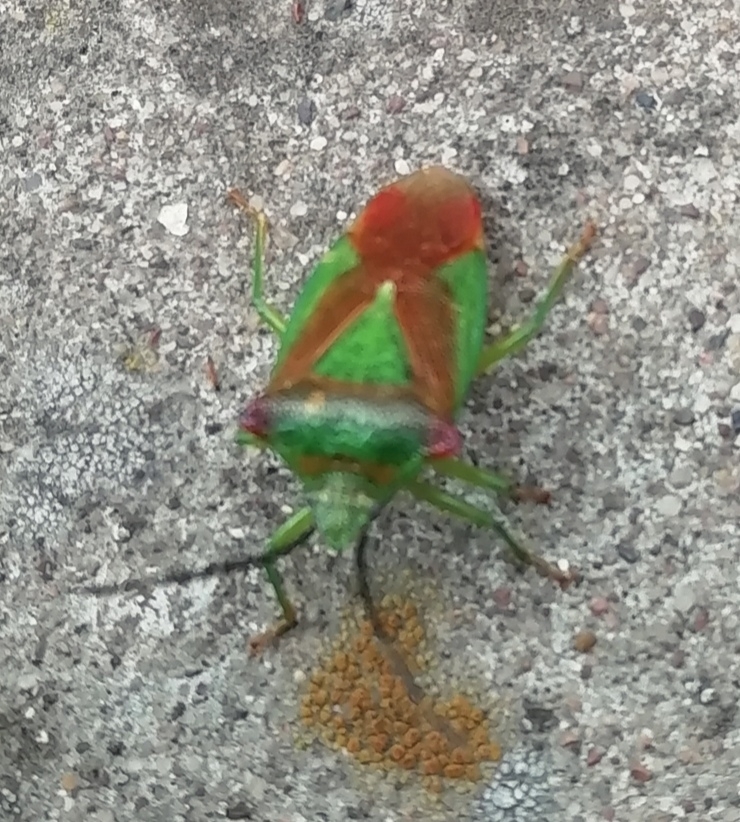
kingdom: Animalia
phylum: Arthropoda
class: Insecta
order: Hemiptera
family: Acanthosomatidae
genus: Acanthosoma
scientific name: Acanthosoma haemorrhoidale
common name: Hawthorn shieldbug
